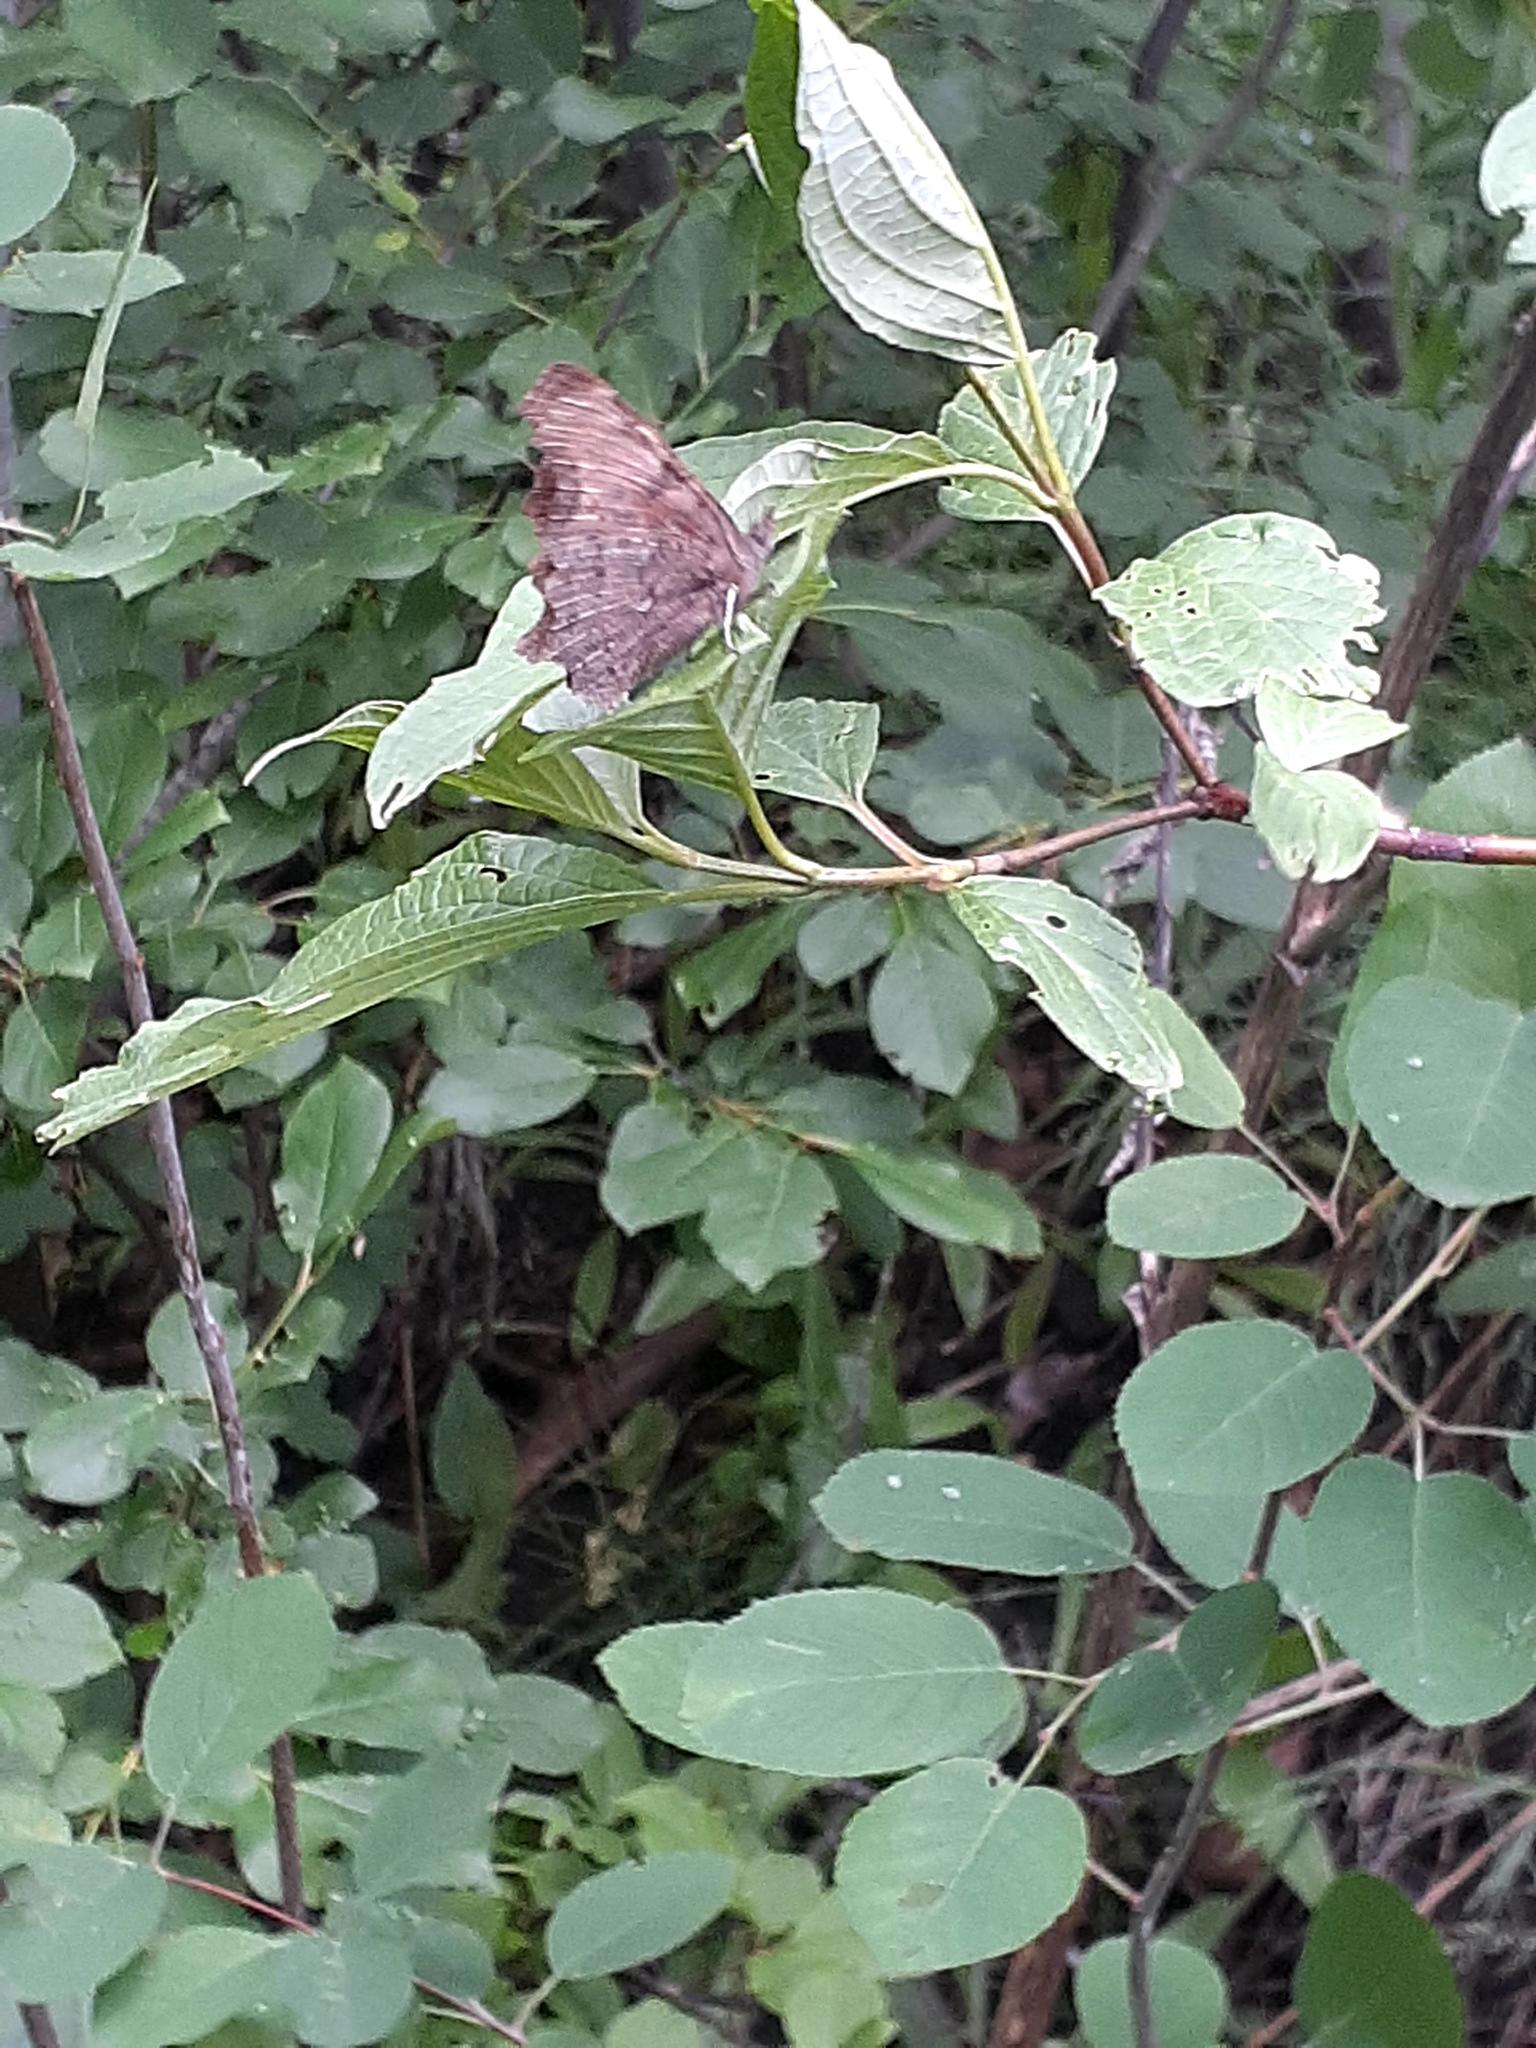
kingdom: Animalia
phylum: Arthropoda
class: Insecta
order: Lepidoptera
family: Nymphalidae
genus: Polygonia
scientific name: Polygonia faunus
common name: Green comma
